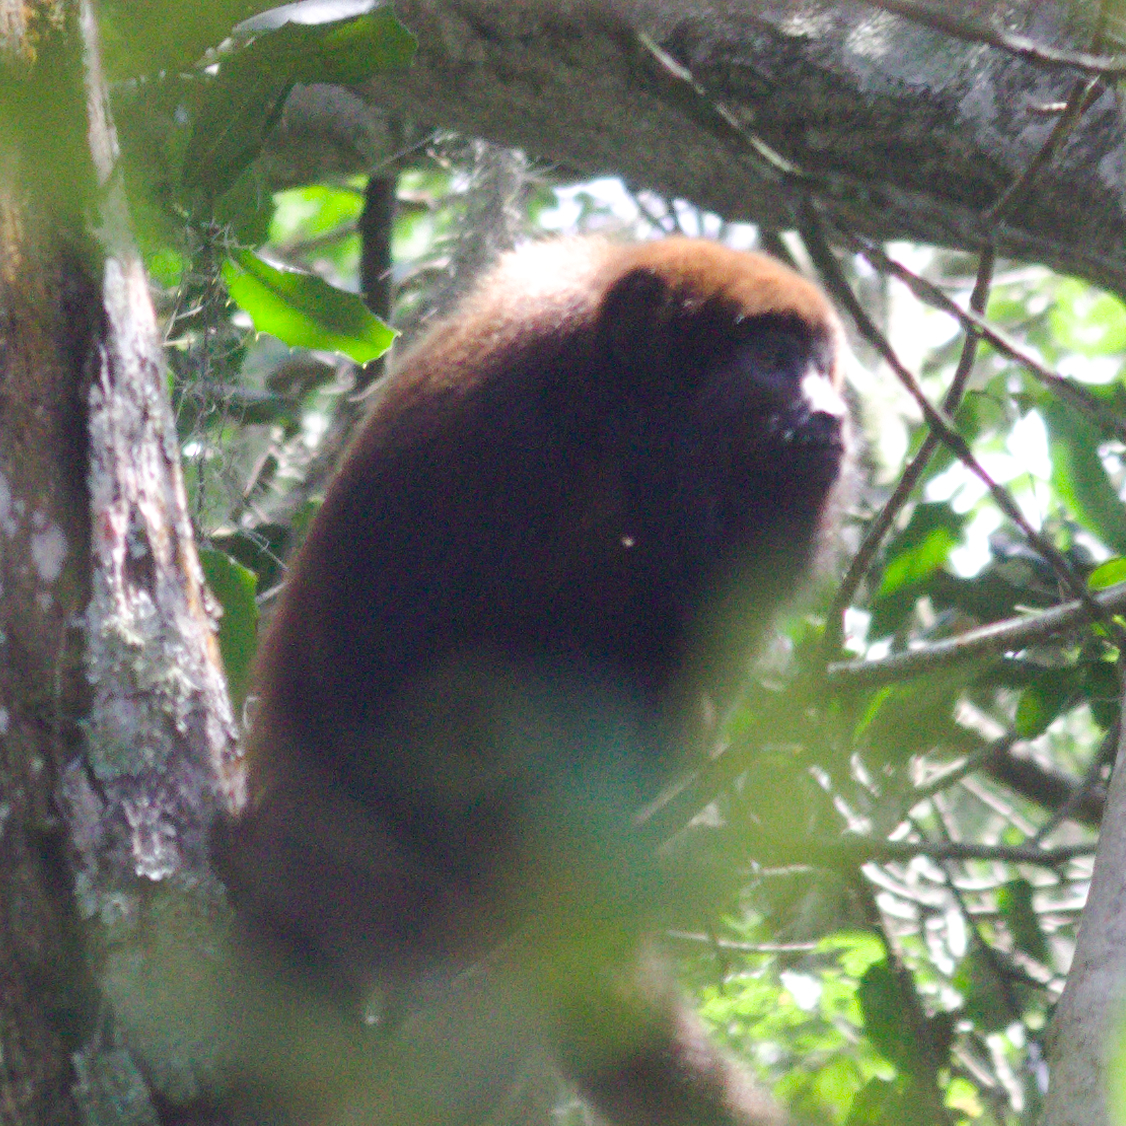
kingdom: Animalia
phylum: Chordata
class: Mammalia
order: Primates
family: Atelidae
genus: Alouatta
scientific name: Alouatta guariba
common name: Brown howler monkey
